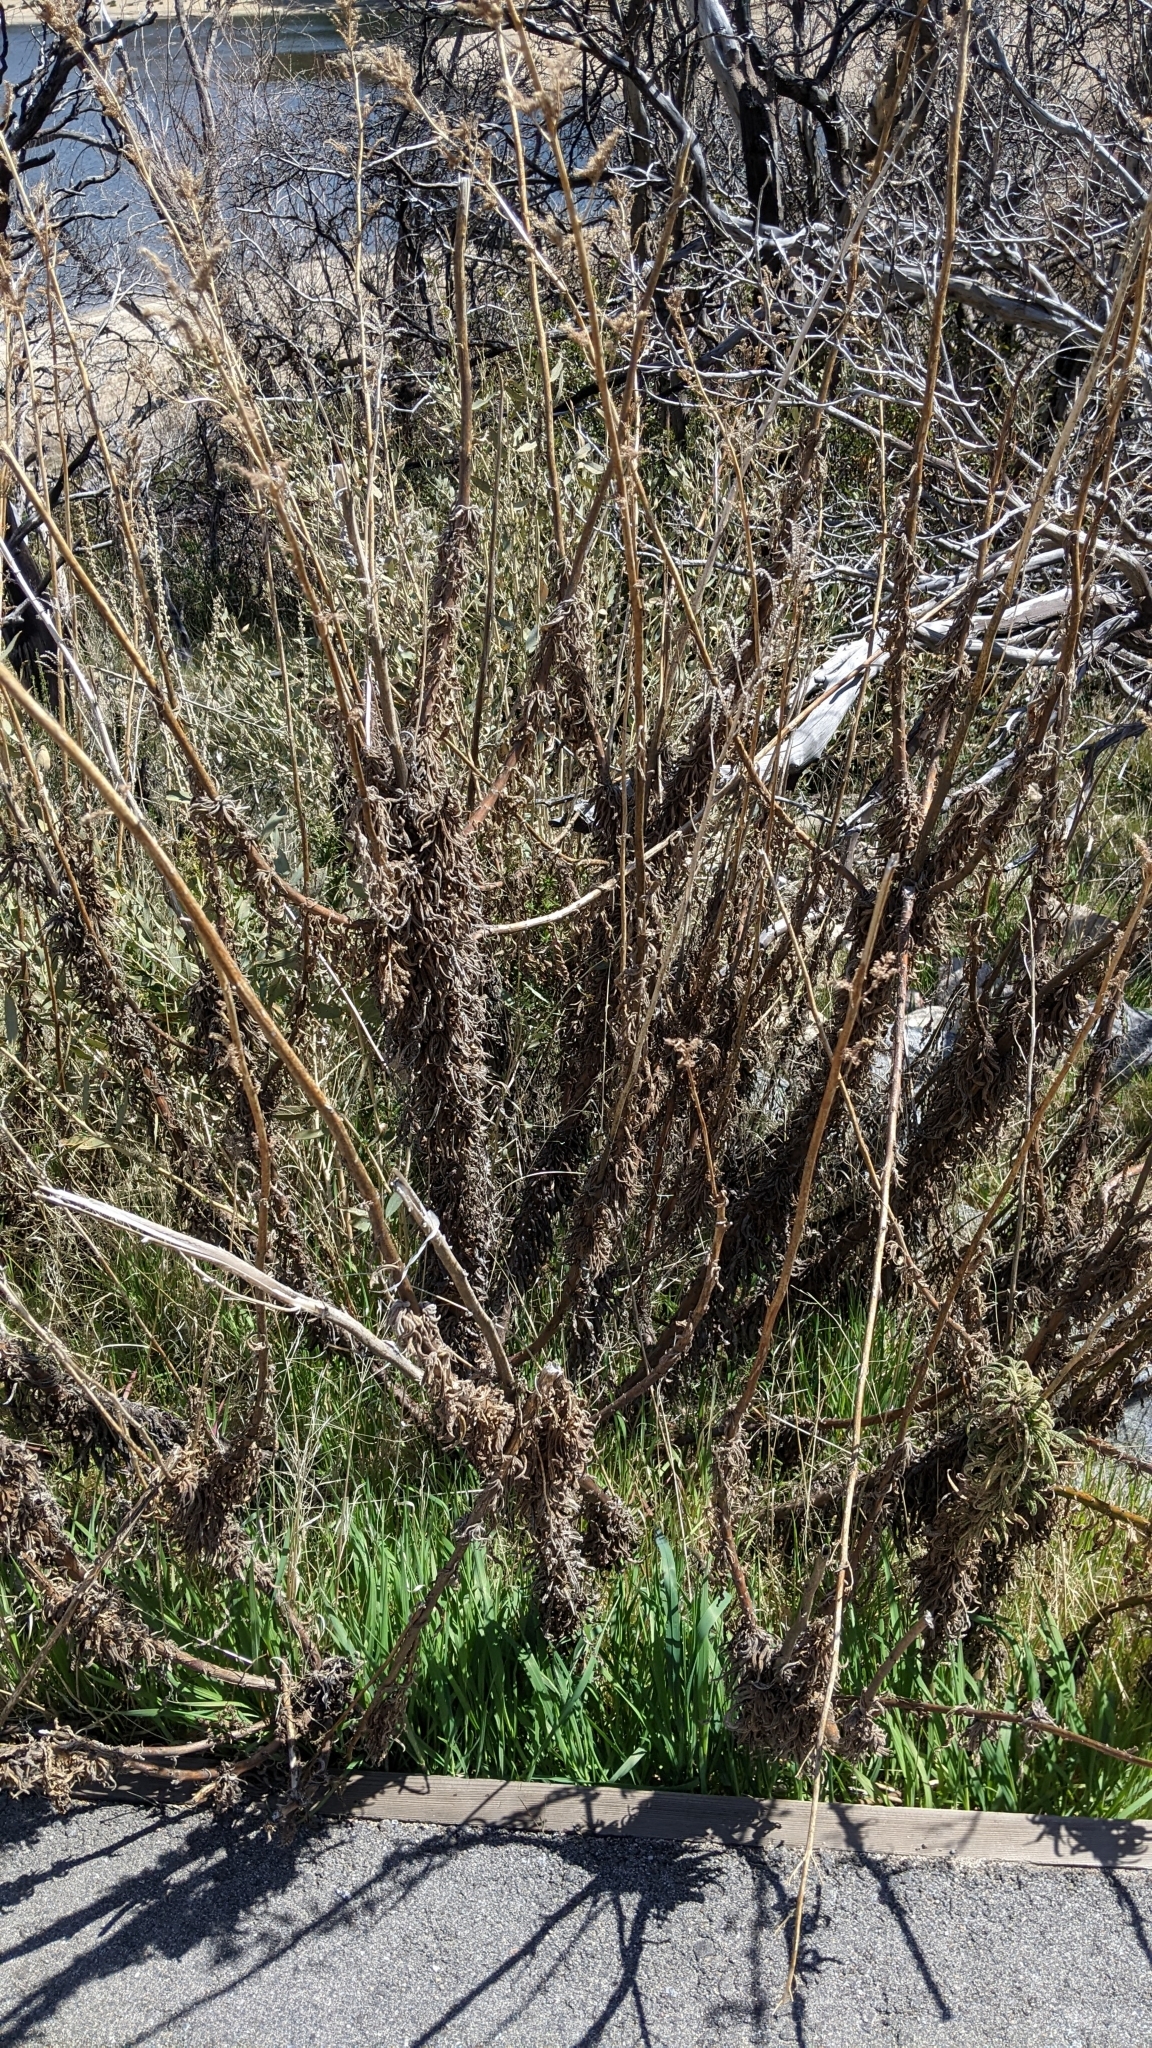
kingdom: Plantae
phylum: Tracheophyta
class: Magnoliopsida
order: Boraginales
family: Namaceae
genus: Turricula
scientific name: Turricula parryi
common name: Poodle-dog-bush
